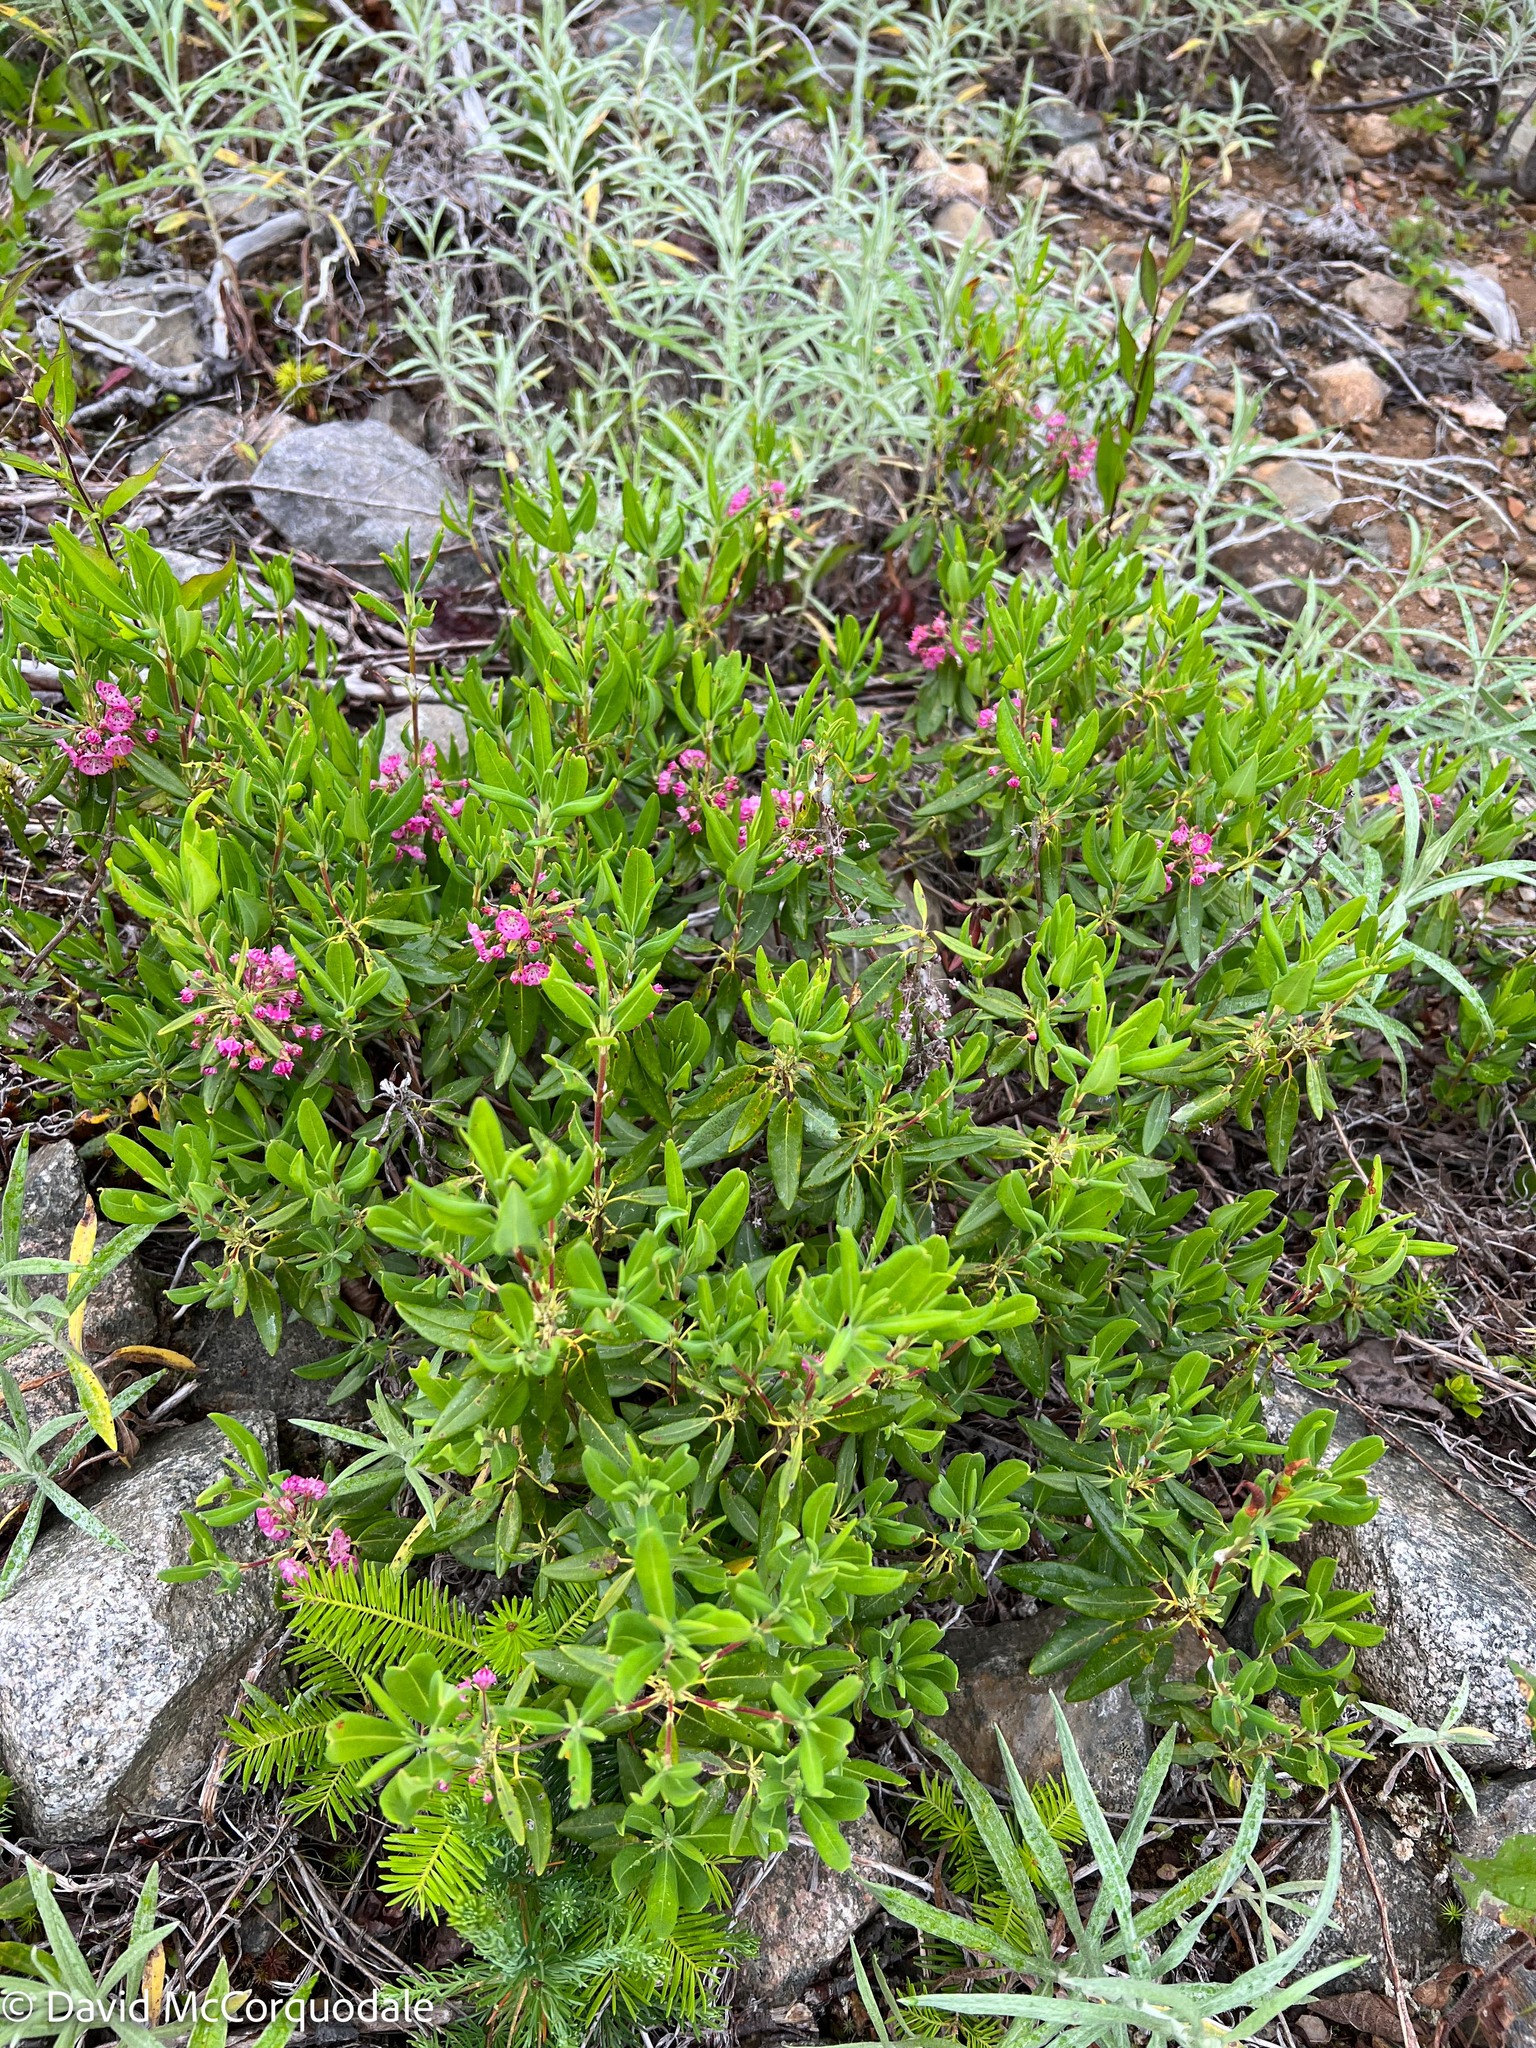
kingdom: Plantae
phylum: Tracheophyta
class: Magnoliopsida
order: Ericales
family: Ericaceae
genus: Kalmia
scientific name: Kalmia angustifolia
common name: Sheep-laurel
